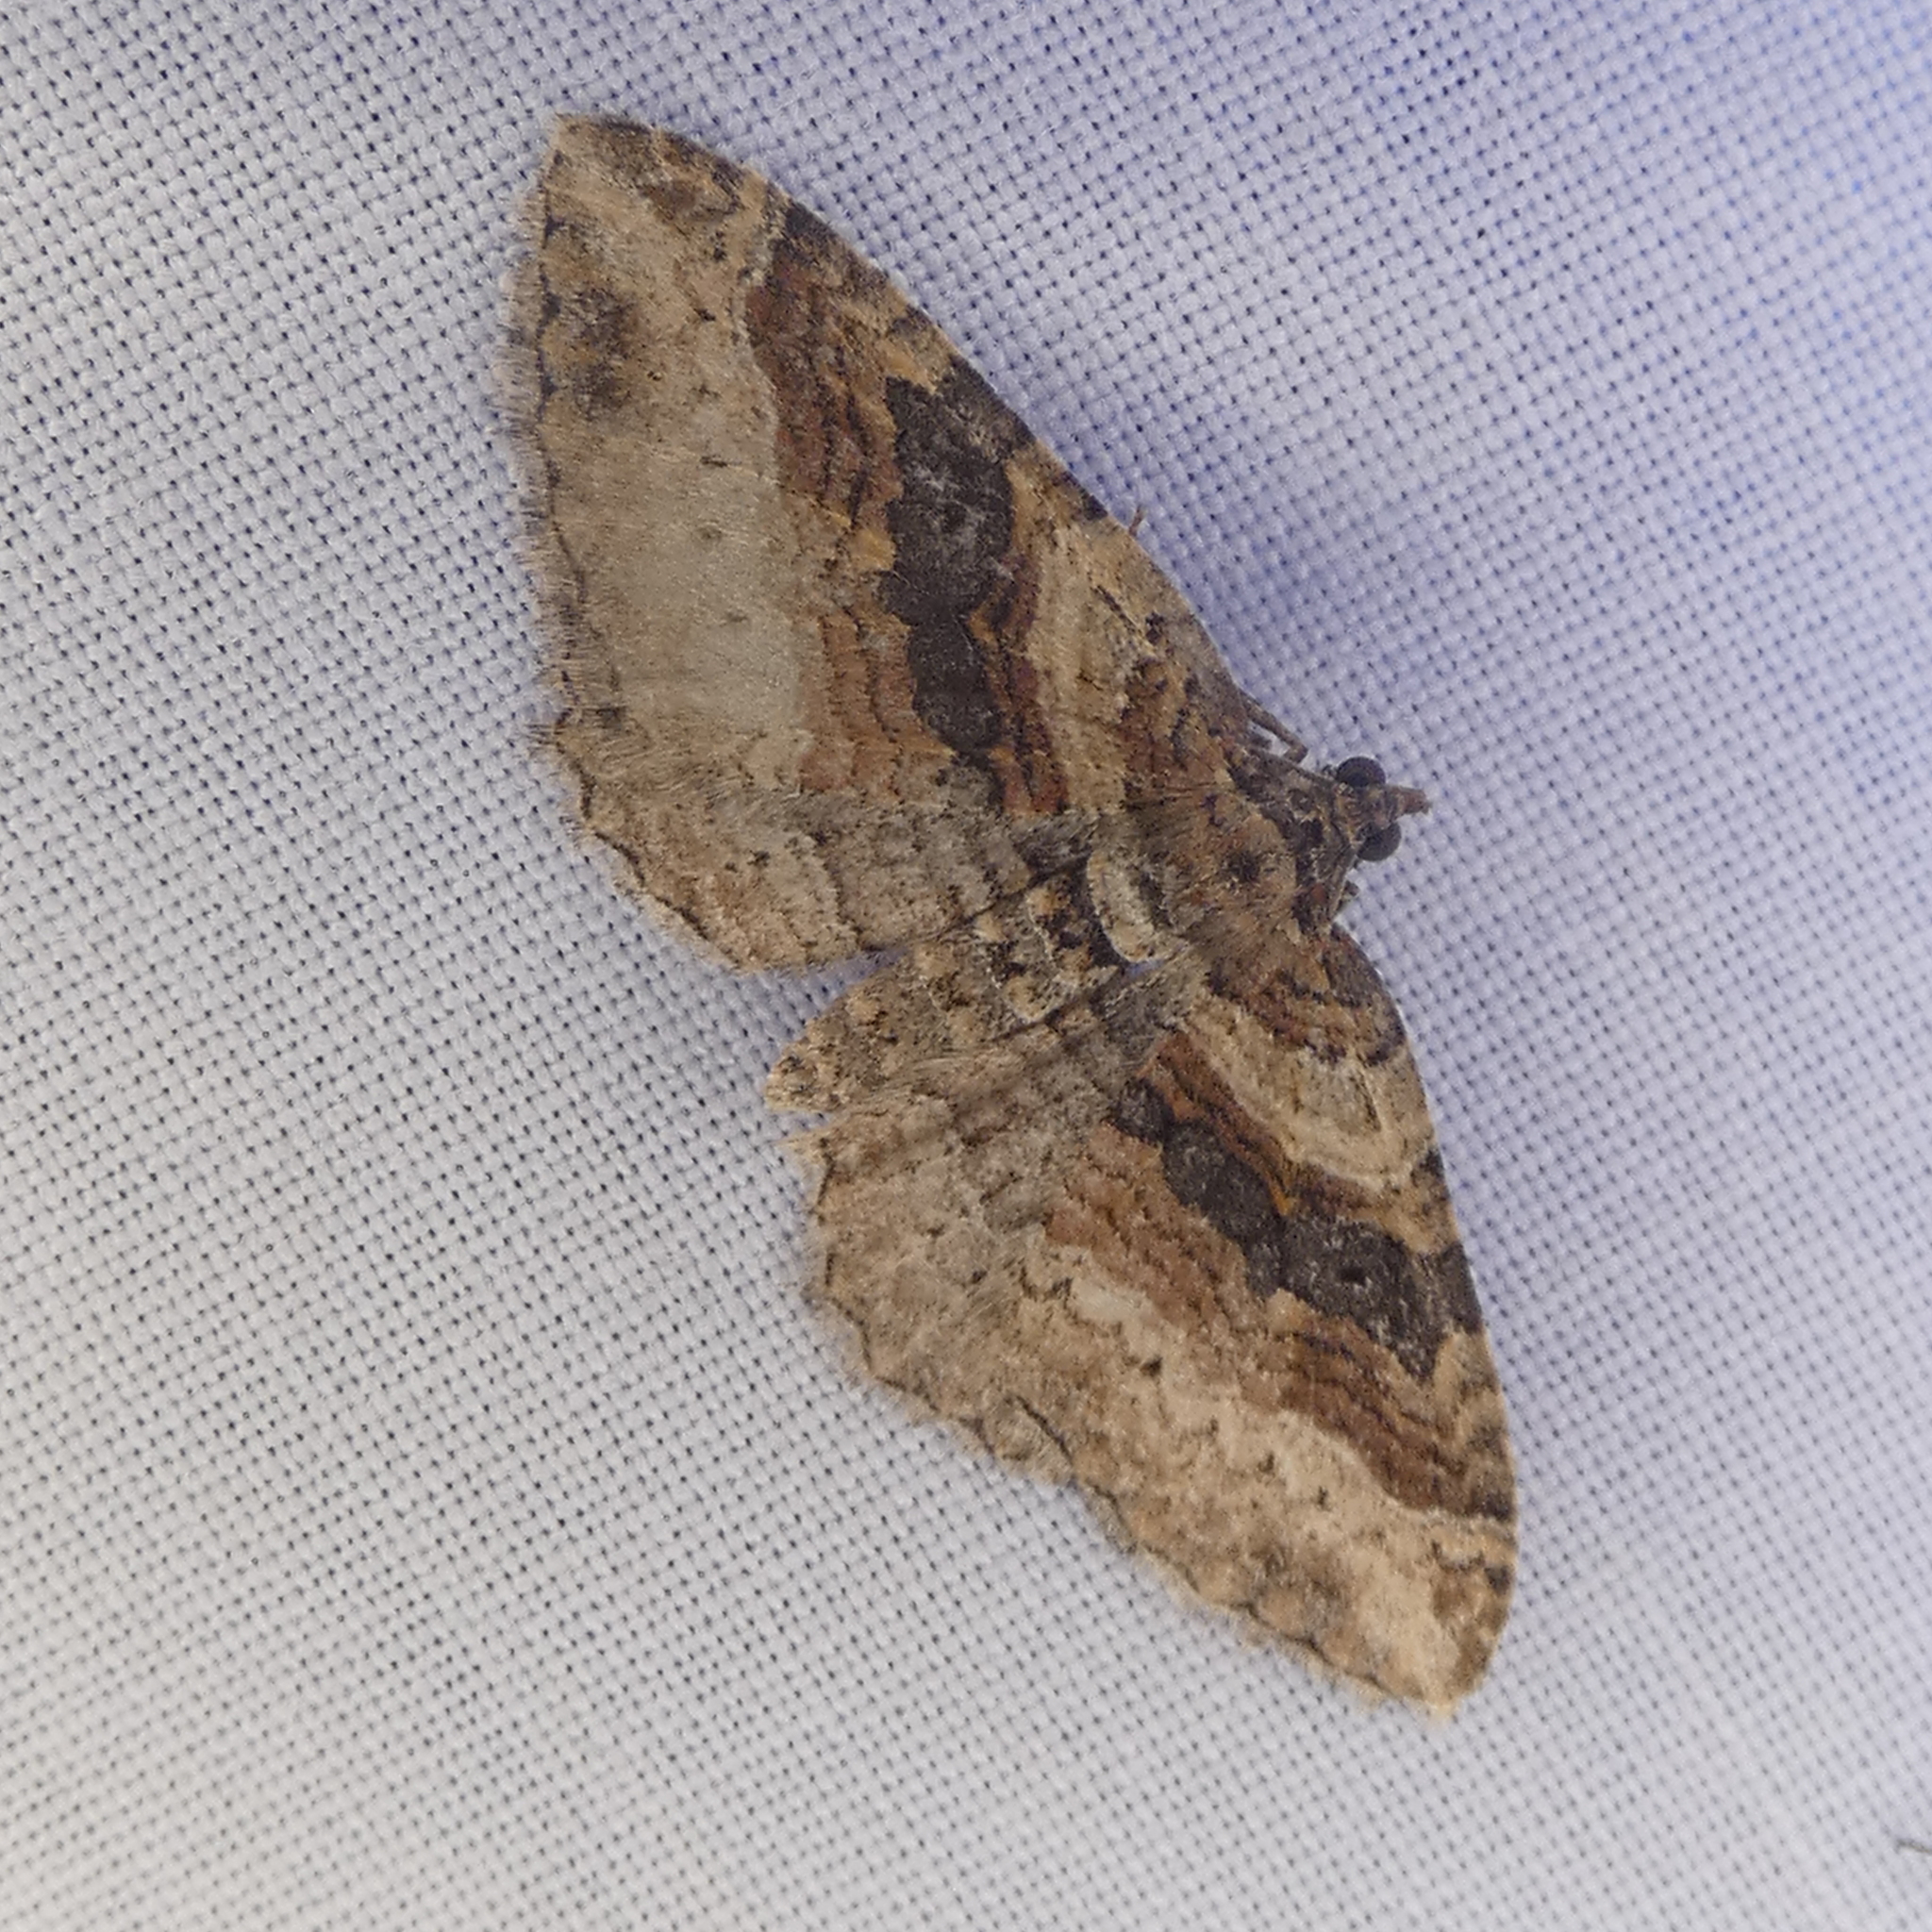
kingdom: Animalia
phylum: Arthropoda
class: Insecta
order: Lepidoptera
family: Geometridae
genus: Costaconvexa
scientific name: Costaconvexa centrostrigaria
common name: Bent-line carpet
